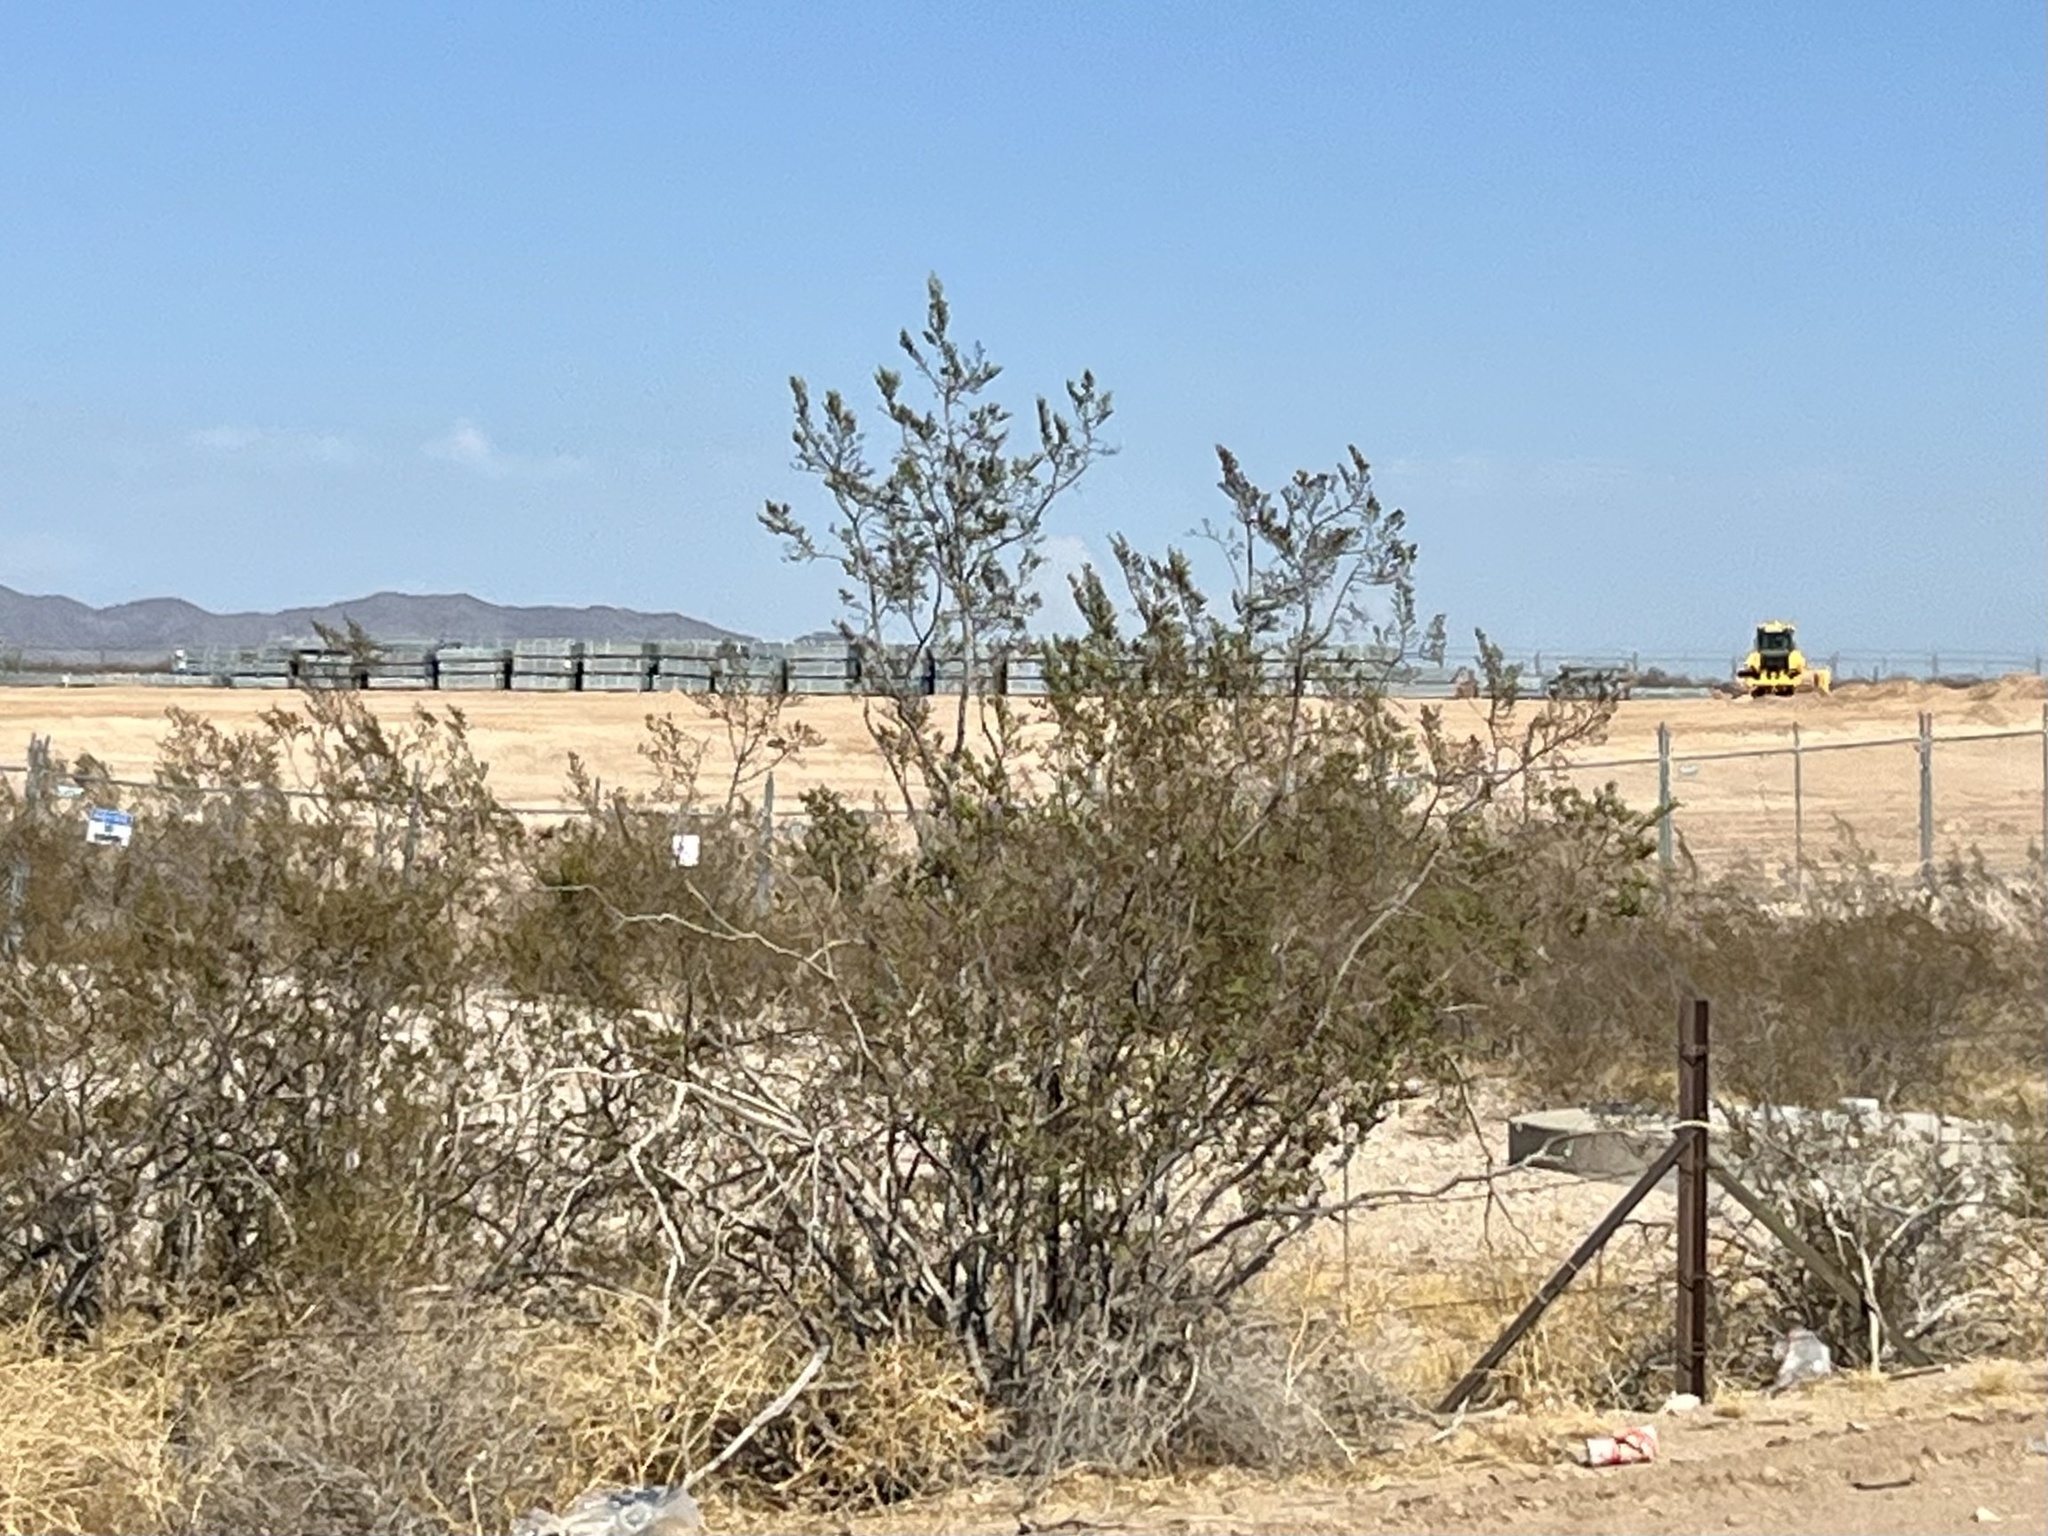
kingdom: Plantae
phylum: Tracheophyta
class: Magnoliopsida
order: Zygophyllales
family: Zygophyllaceae
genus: Larrea
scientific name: Larrea tridentata
